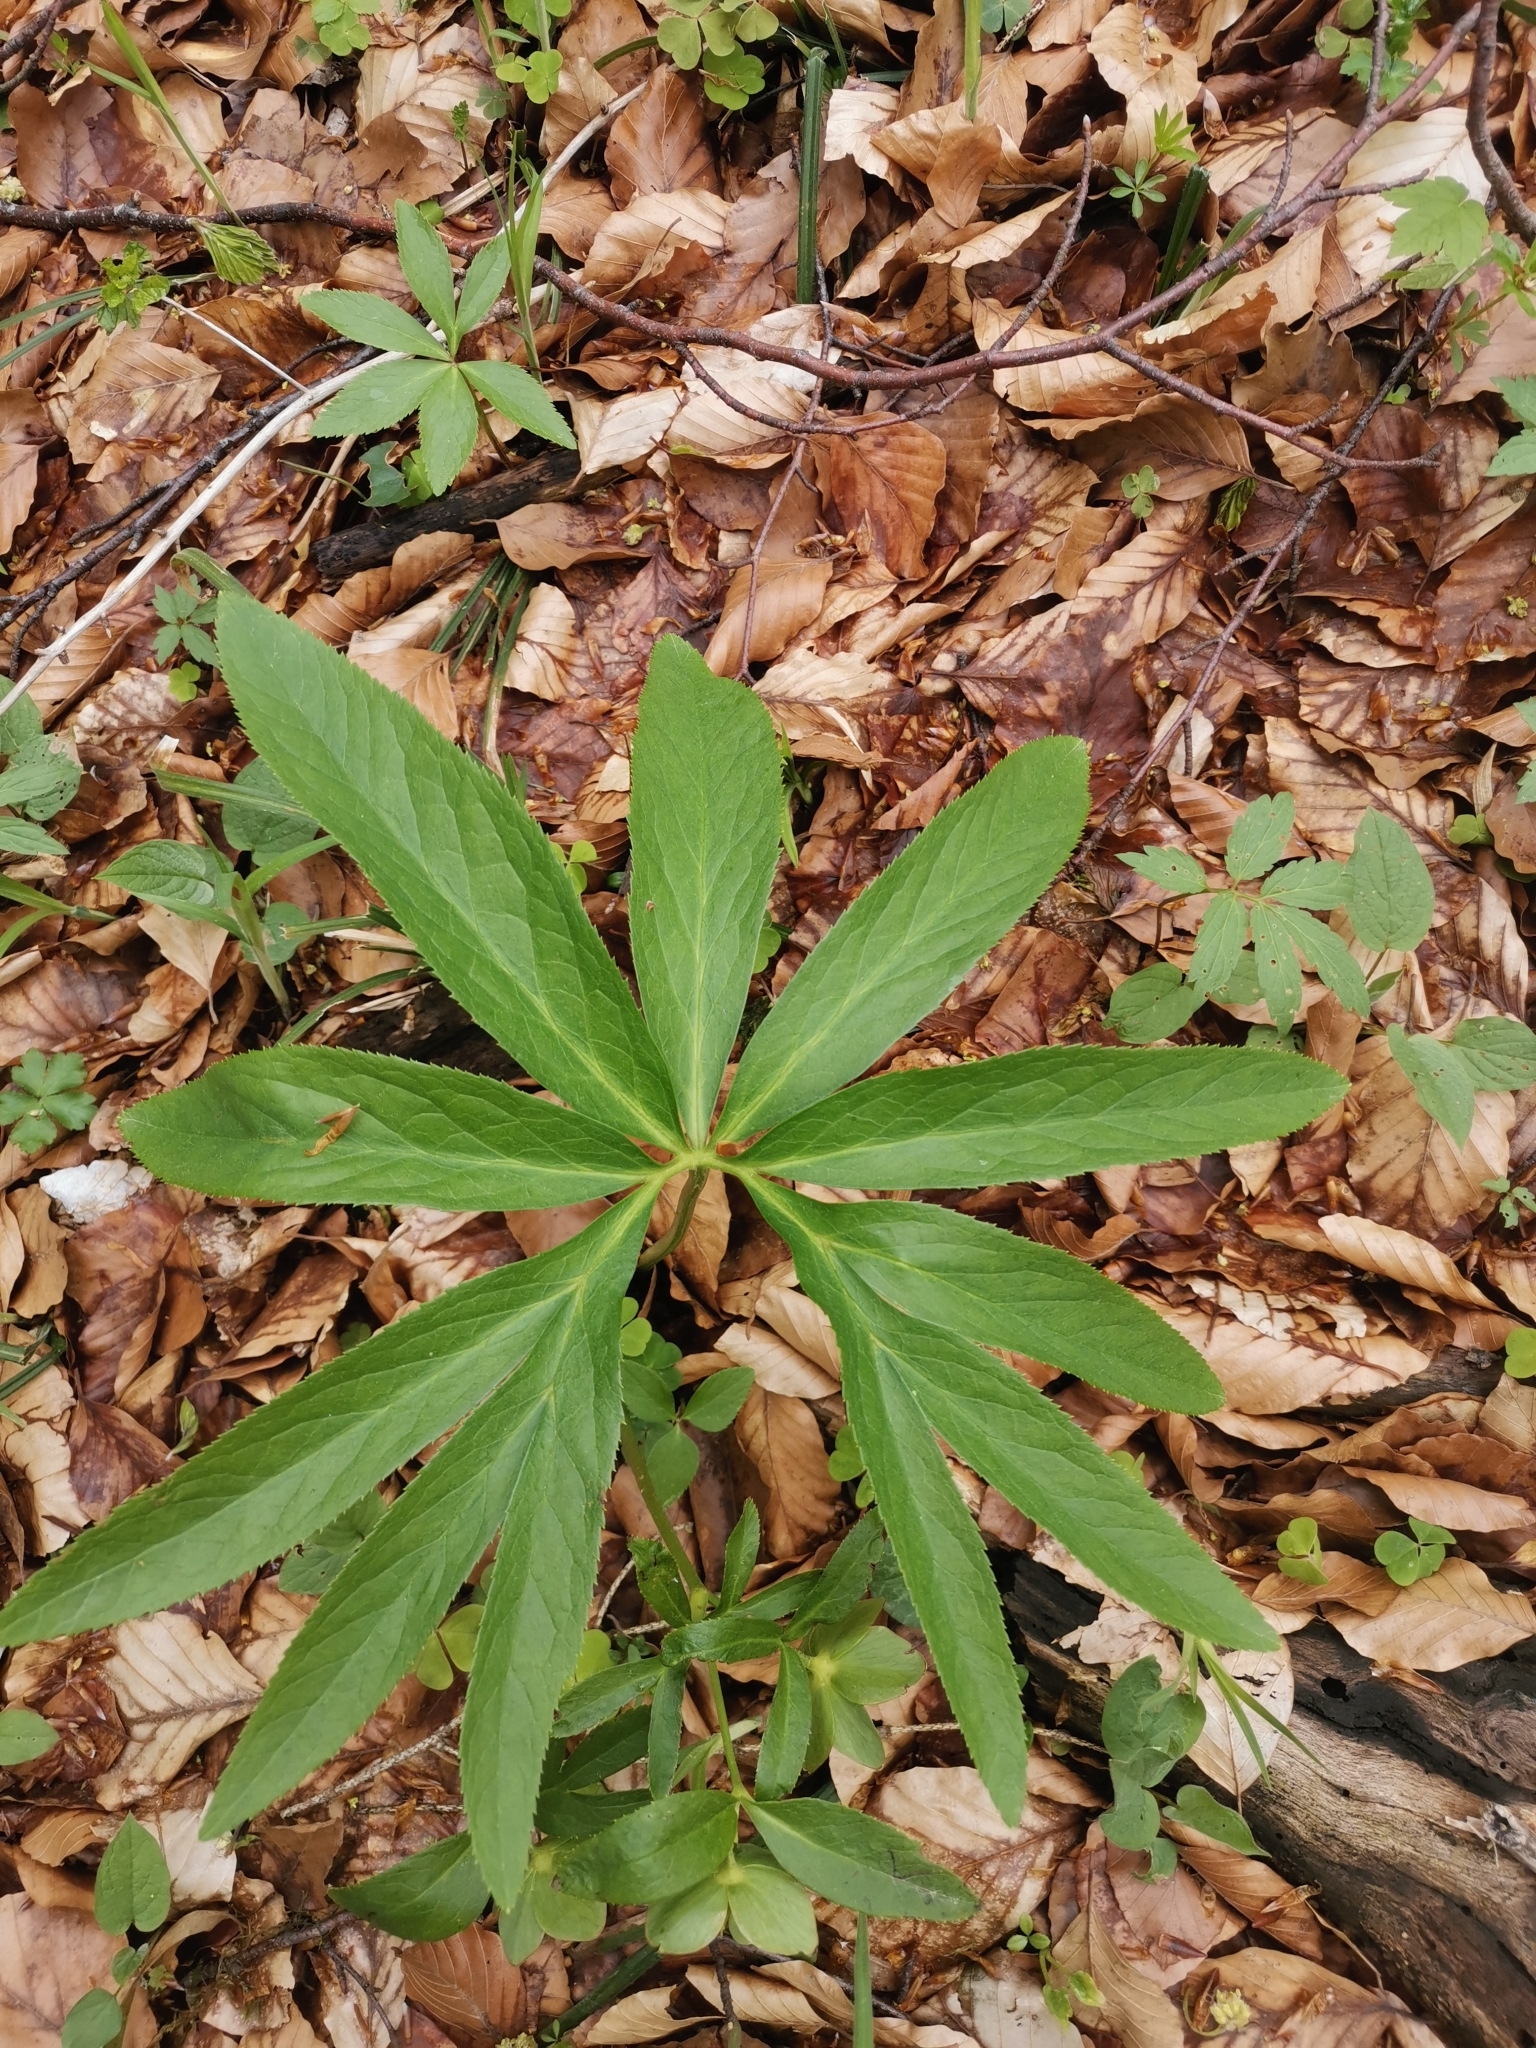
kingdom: Plantae
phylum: Tracheophyta
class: Magnoliopsida
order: Ranunculales
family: Ranunculaceae
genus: Helleborus
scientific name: Helleborus dumetorum
